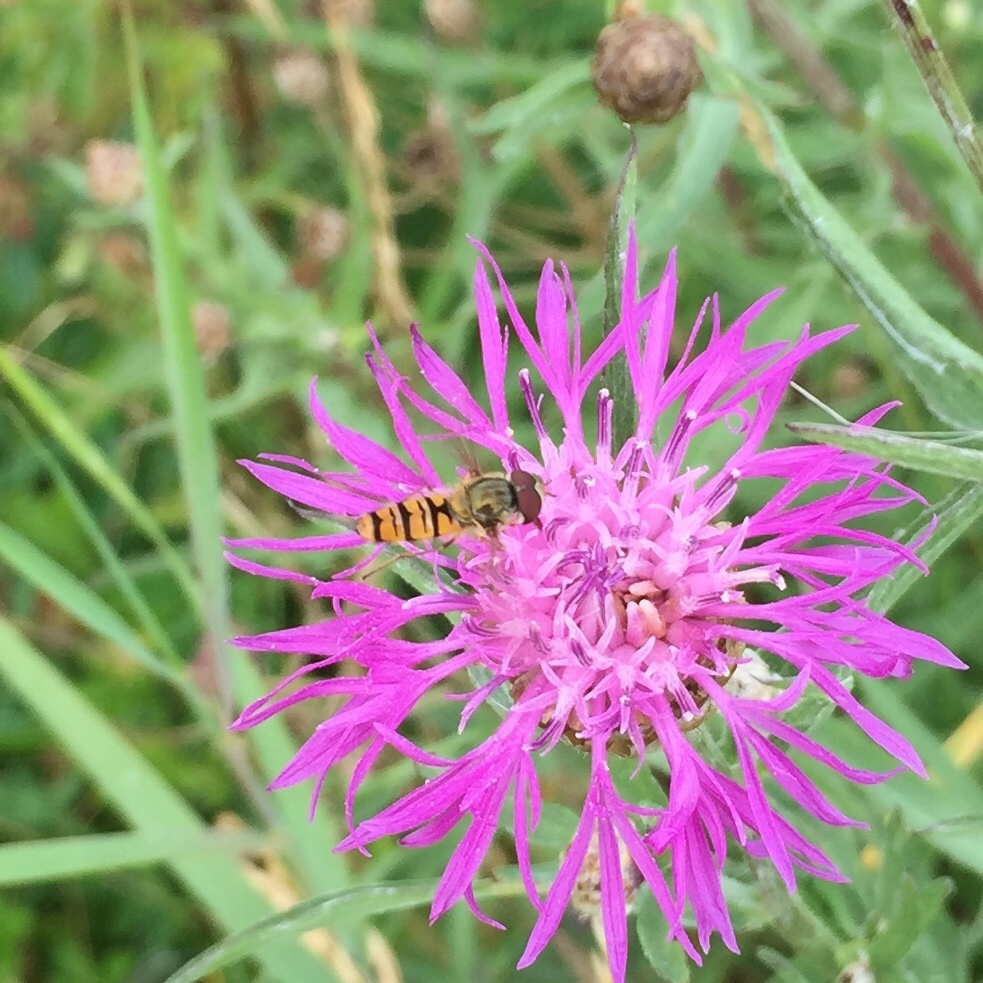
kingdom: Animalia
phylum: Arthropoda
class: Insecta
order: Diptera
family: Syrphidae
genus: Episyrphus
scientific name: Episyrphus balteatus
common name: Marmalade hoverfly
